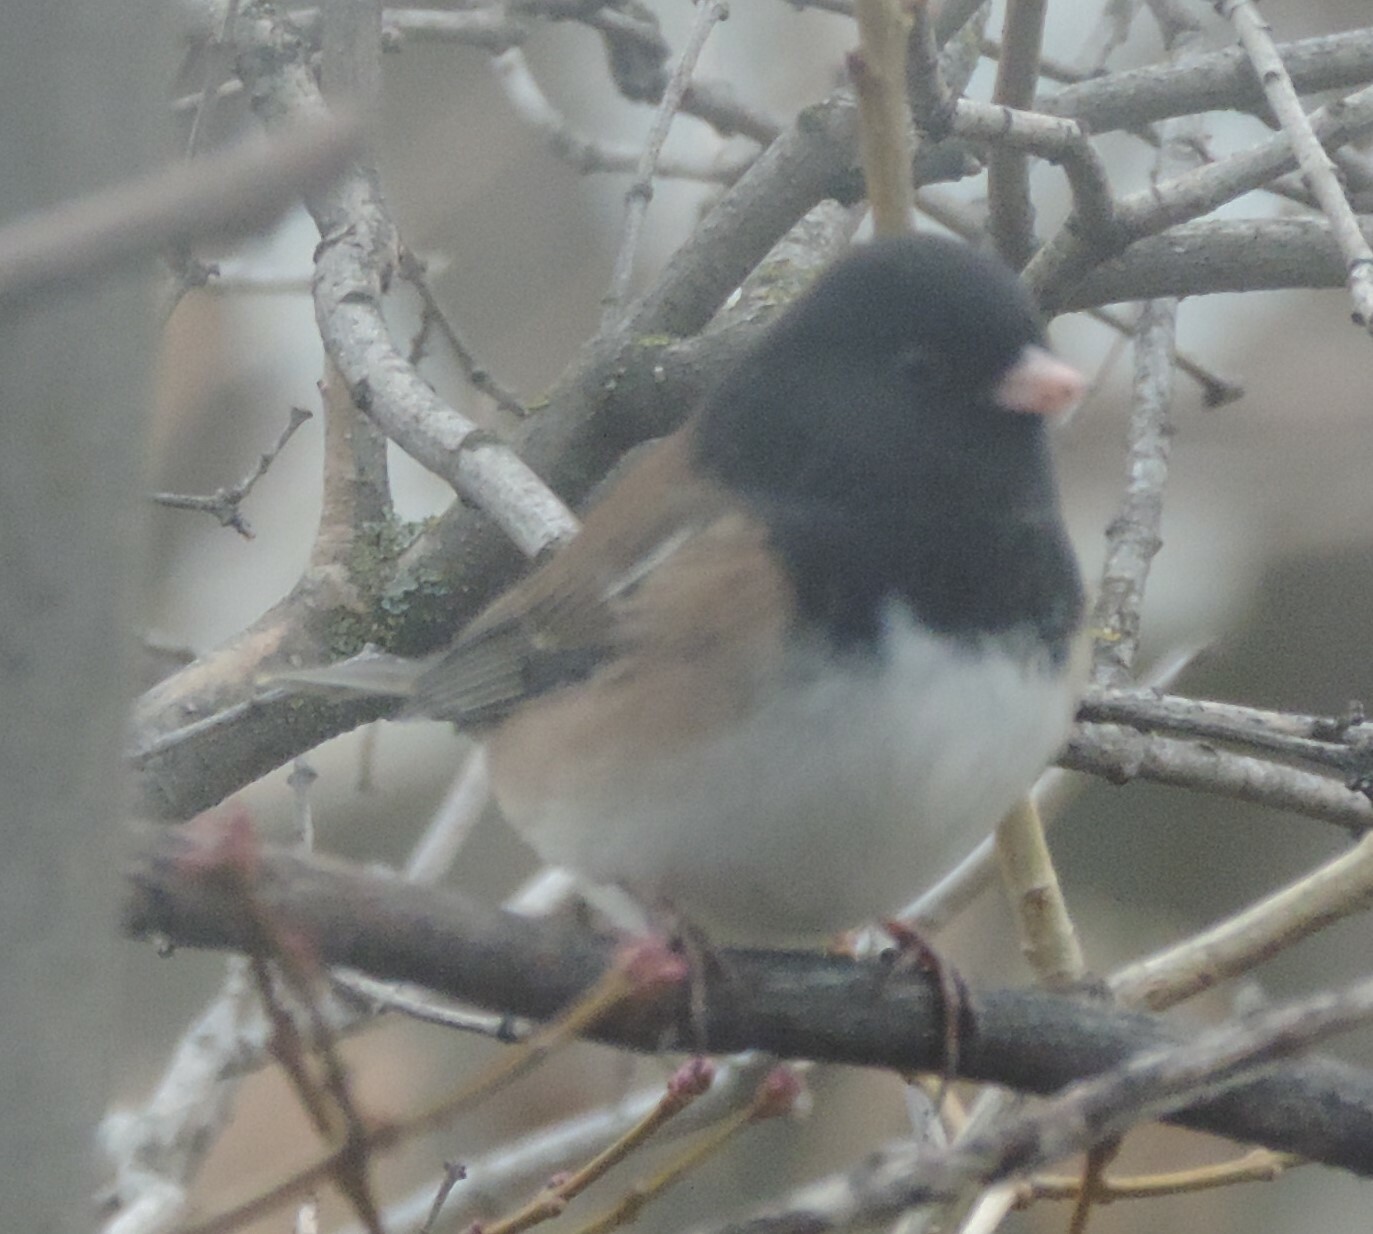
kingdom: Animalia
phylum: Chordata
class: Aves
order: Passeriformes
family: Passerellidae
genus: Junco
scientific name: Junco hyemalis
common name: Dark-eyed junco
